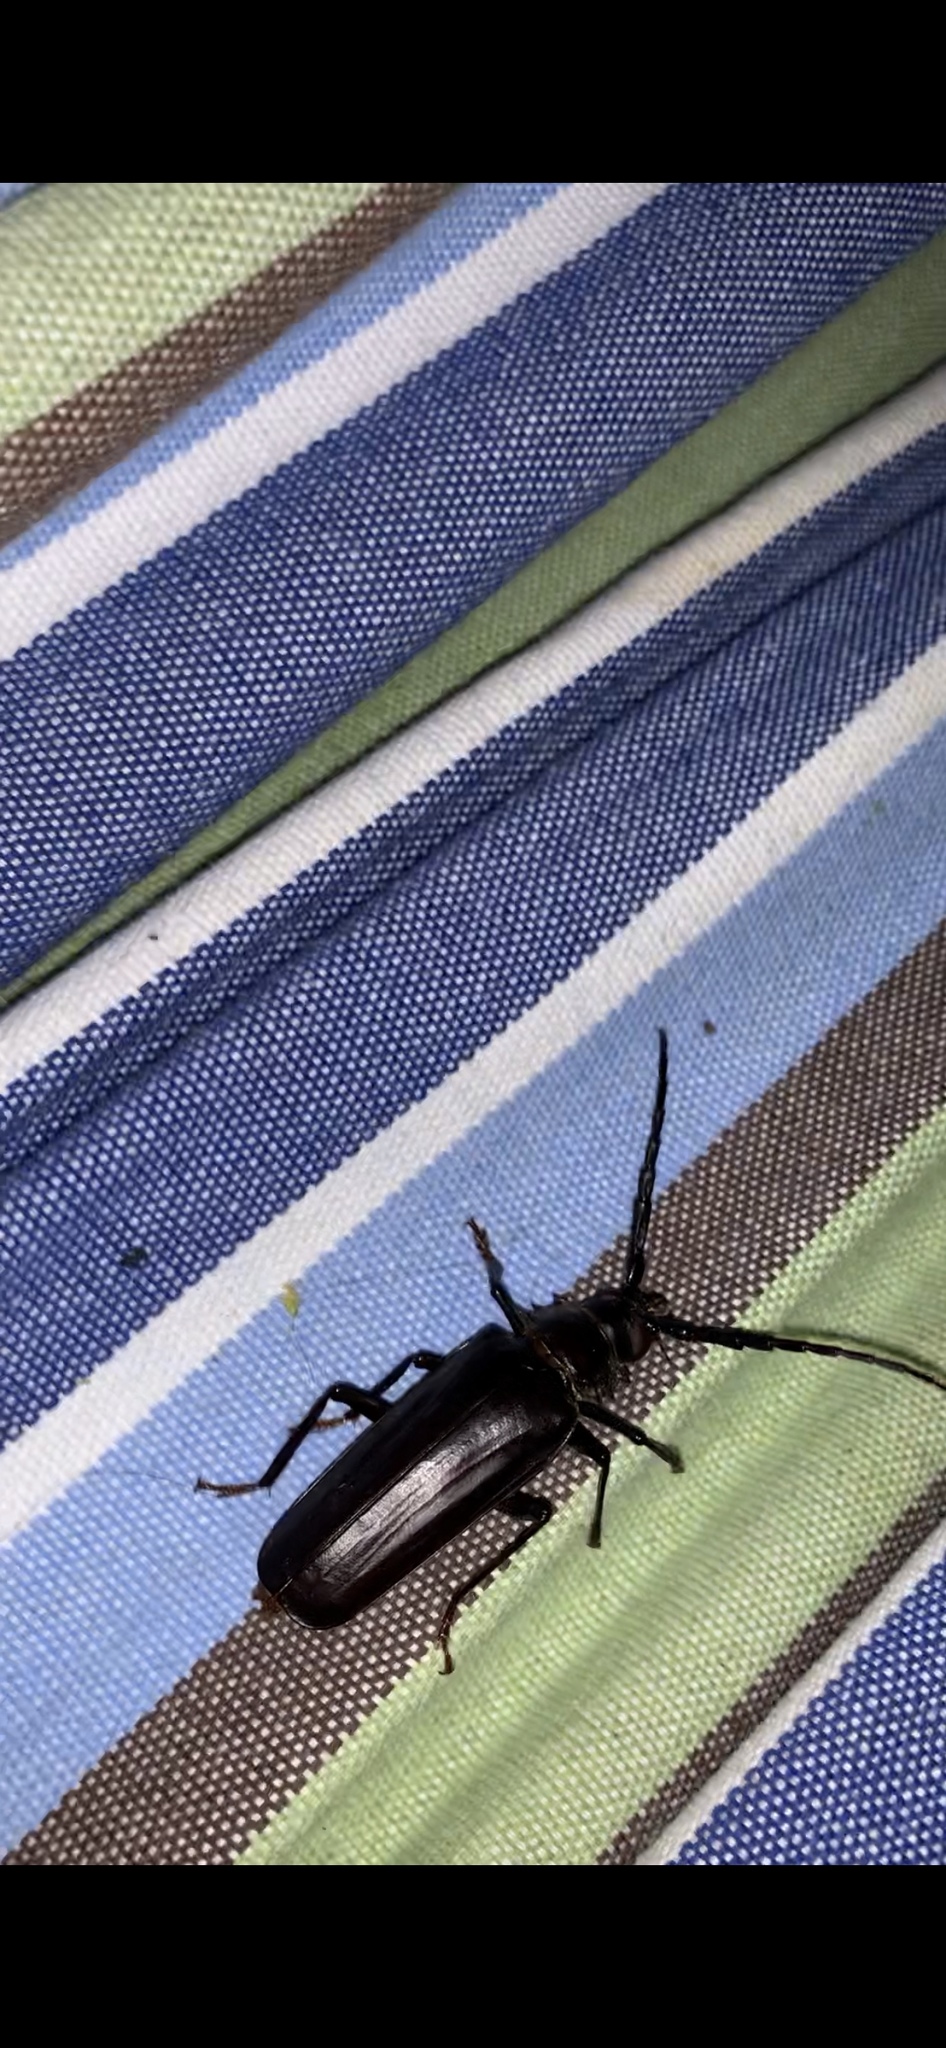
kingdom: Animalia
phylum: Arthropoda
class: Insecta
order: Coleoptera
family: Cerambycidae
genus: Derobrachus
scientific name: Derobrachus hovorei
